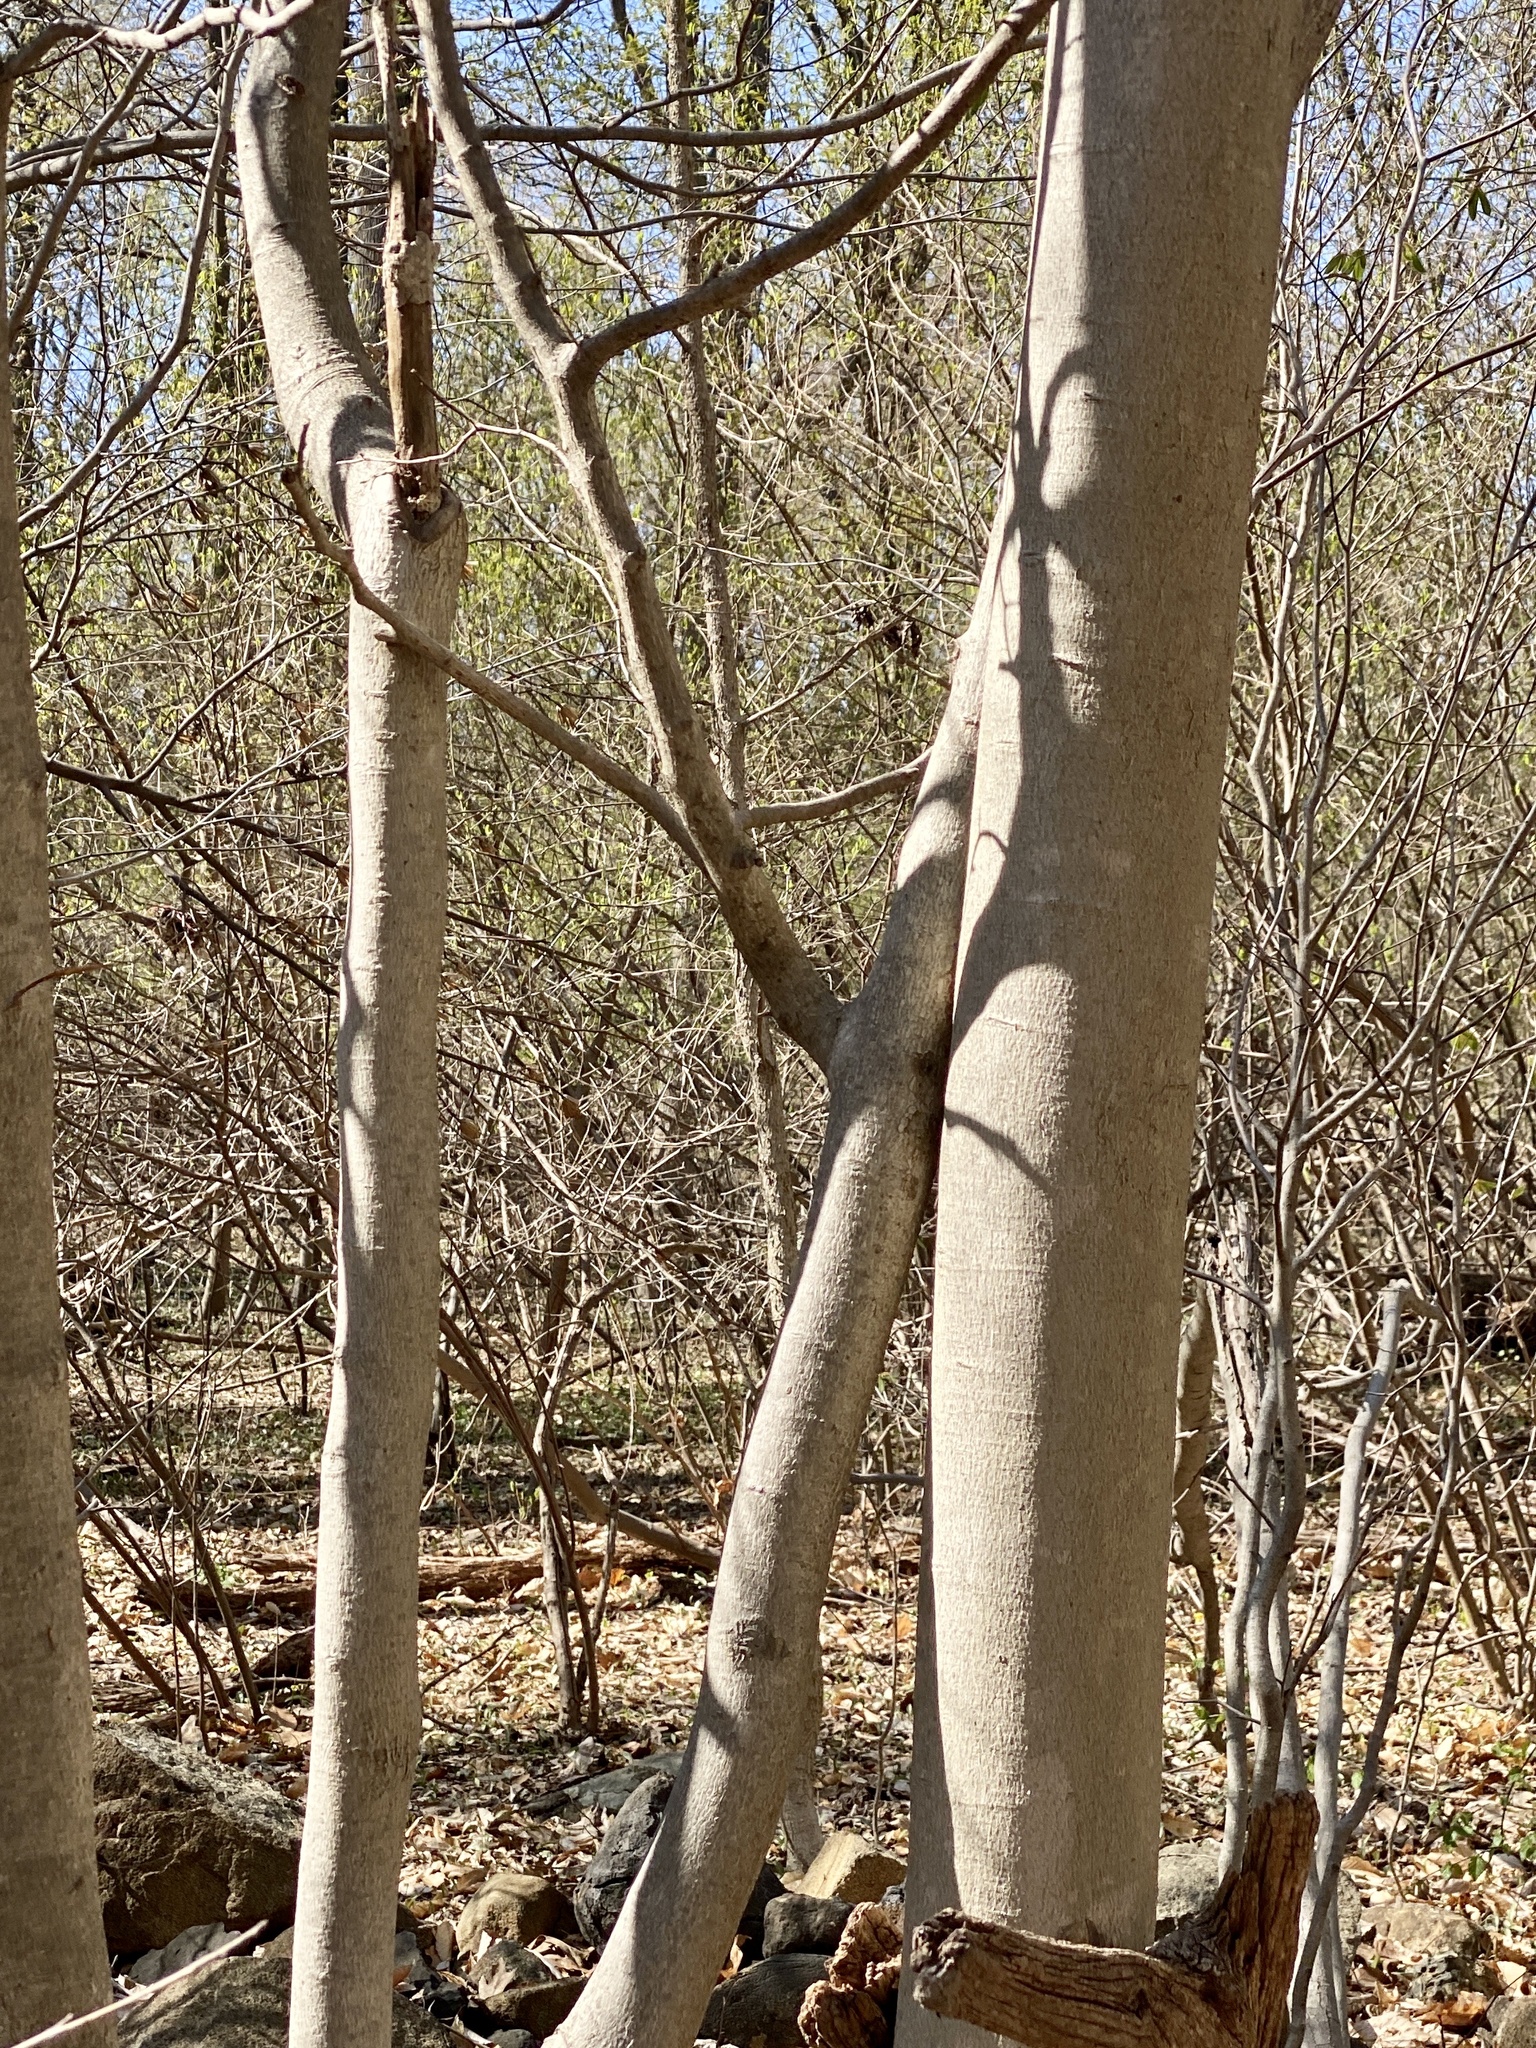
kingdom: Plantae
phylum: Tracheophyta
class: Magnoliopsida
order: Fagales
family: Fagaceae
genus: Fagus
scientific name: Fagus grandifolia
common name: American beech
